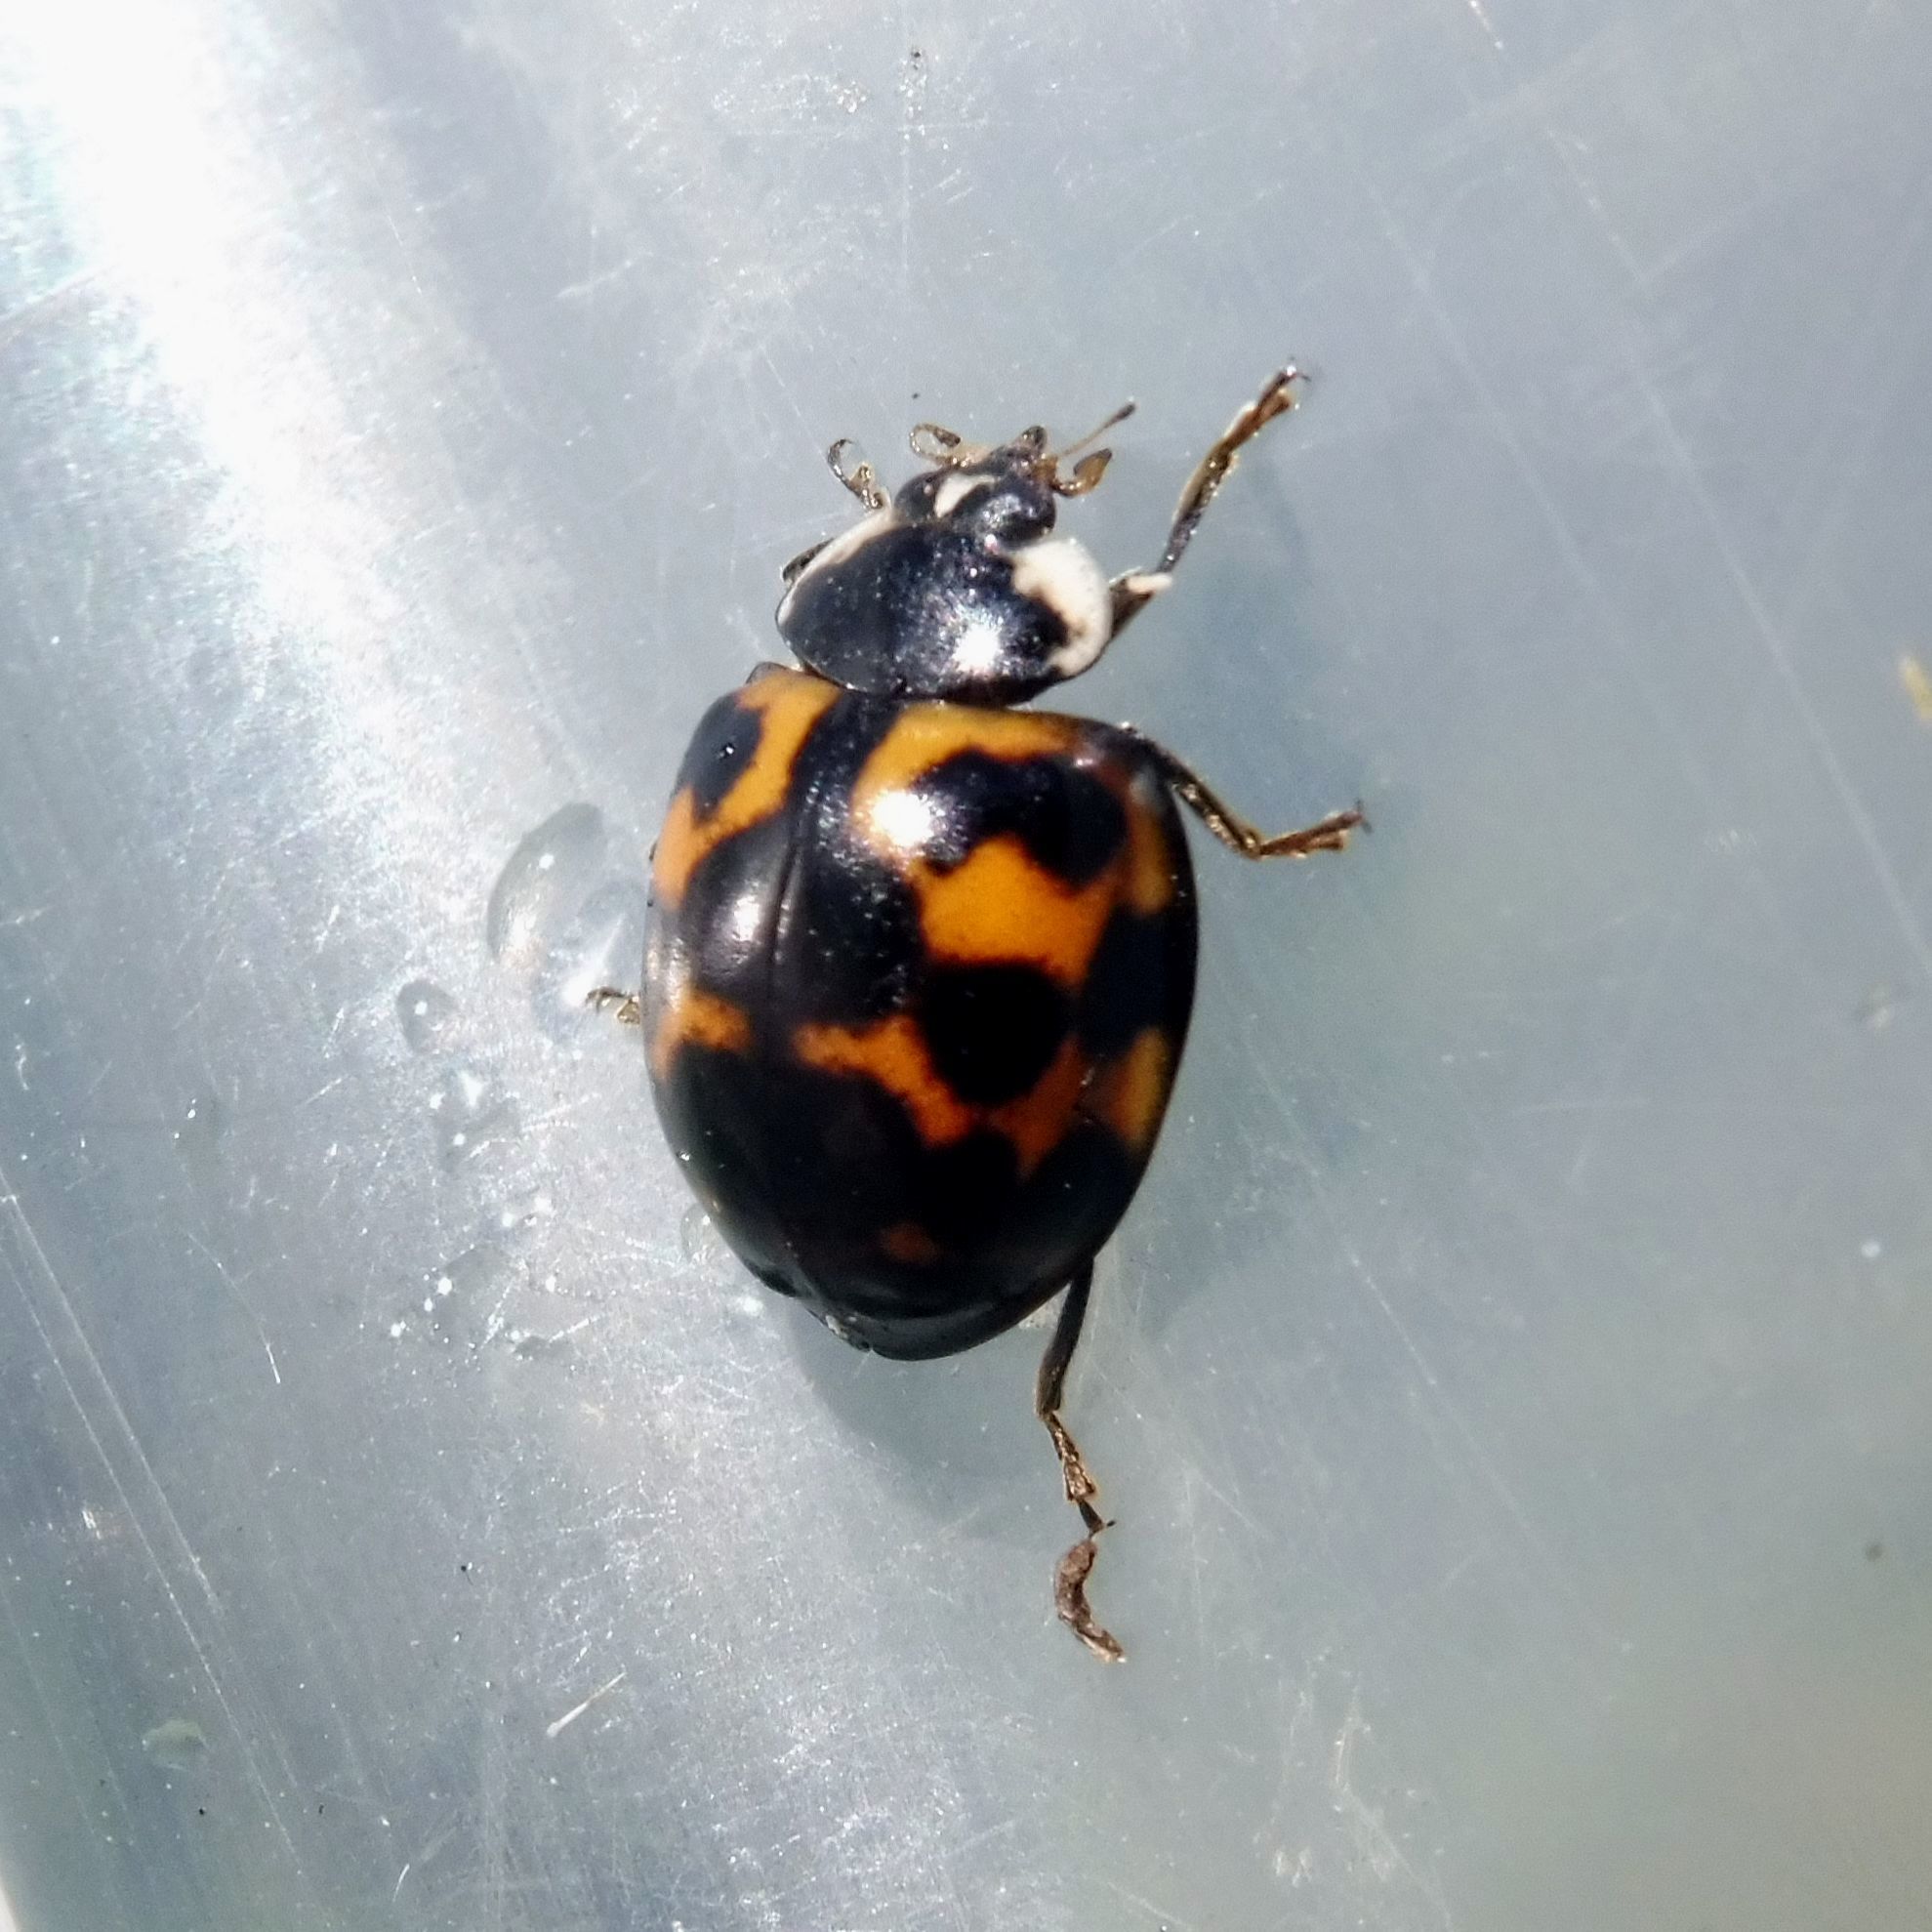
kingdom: Animalia
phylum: Arthropoda
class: Insecta
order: Coleoptera
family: Coccinellidae
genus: Harmonia
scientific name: Harmonia axyridis
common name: Harlequin ladybird
